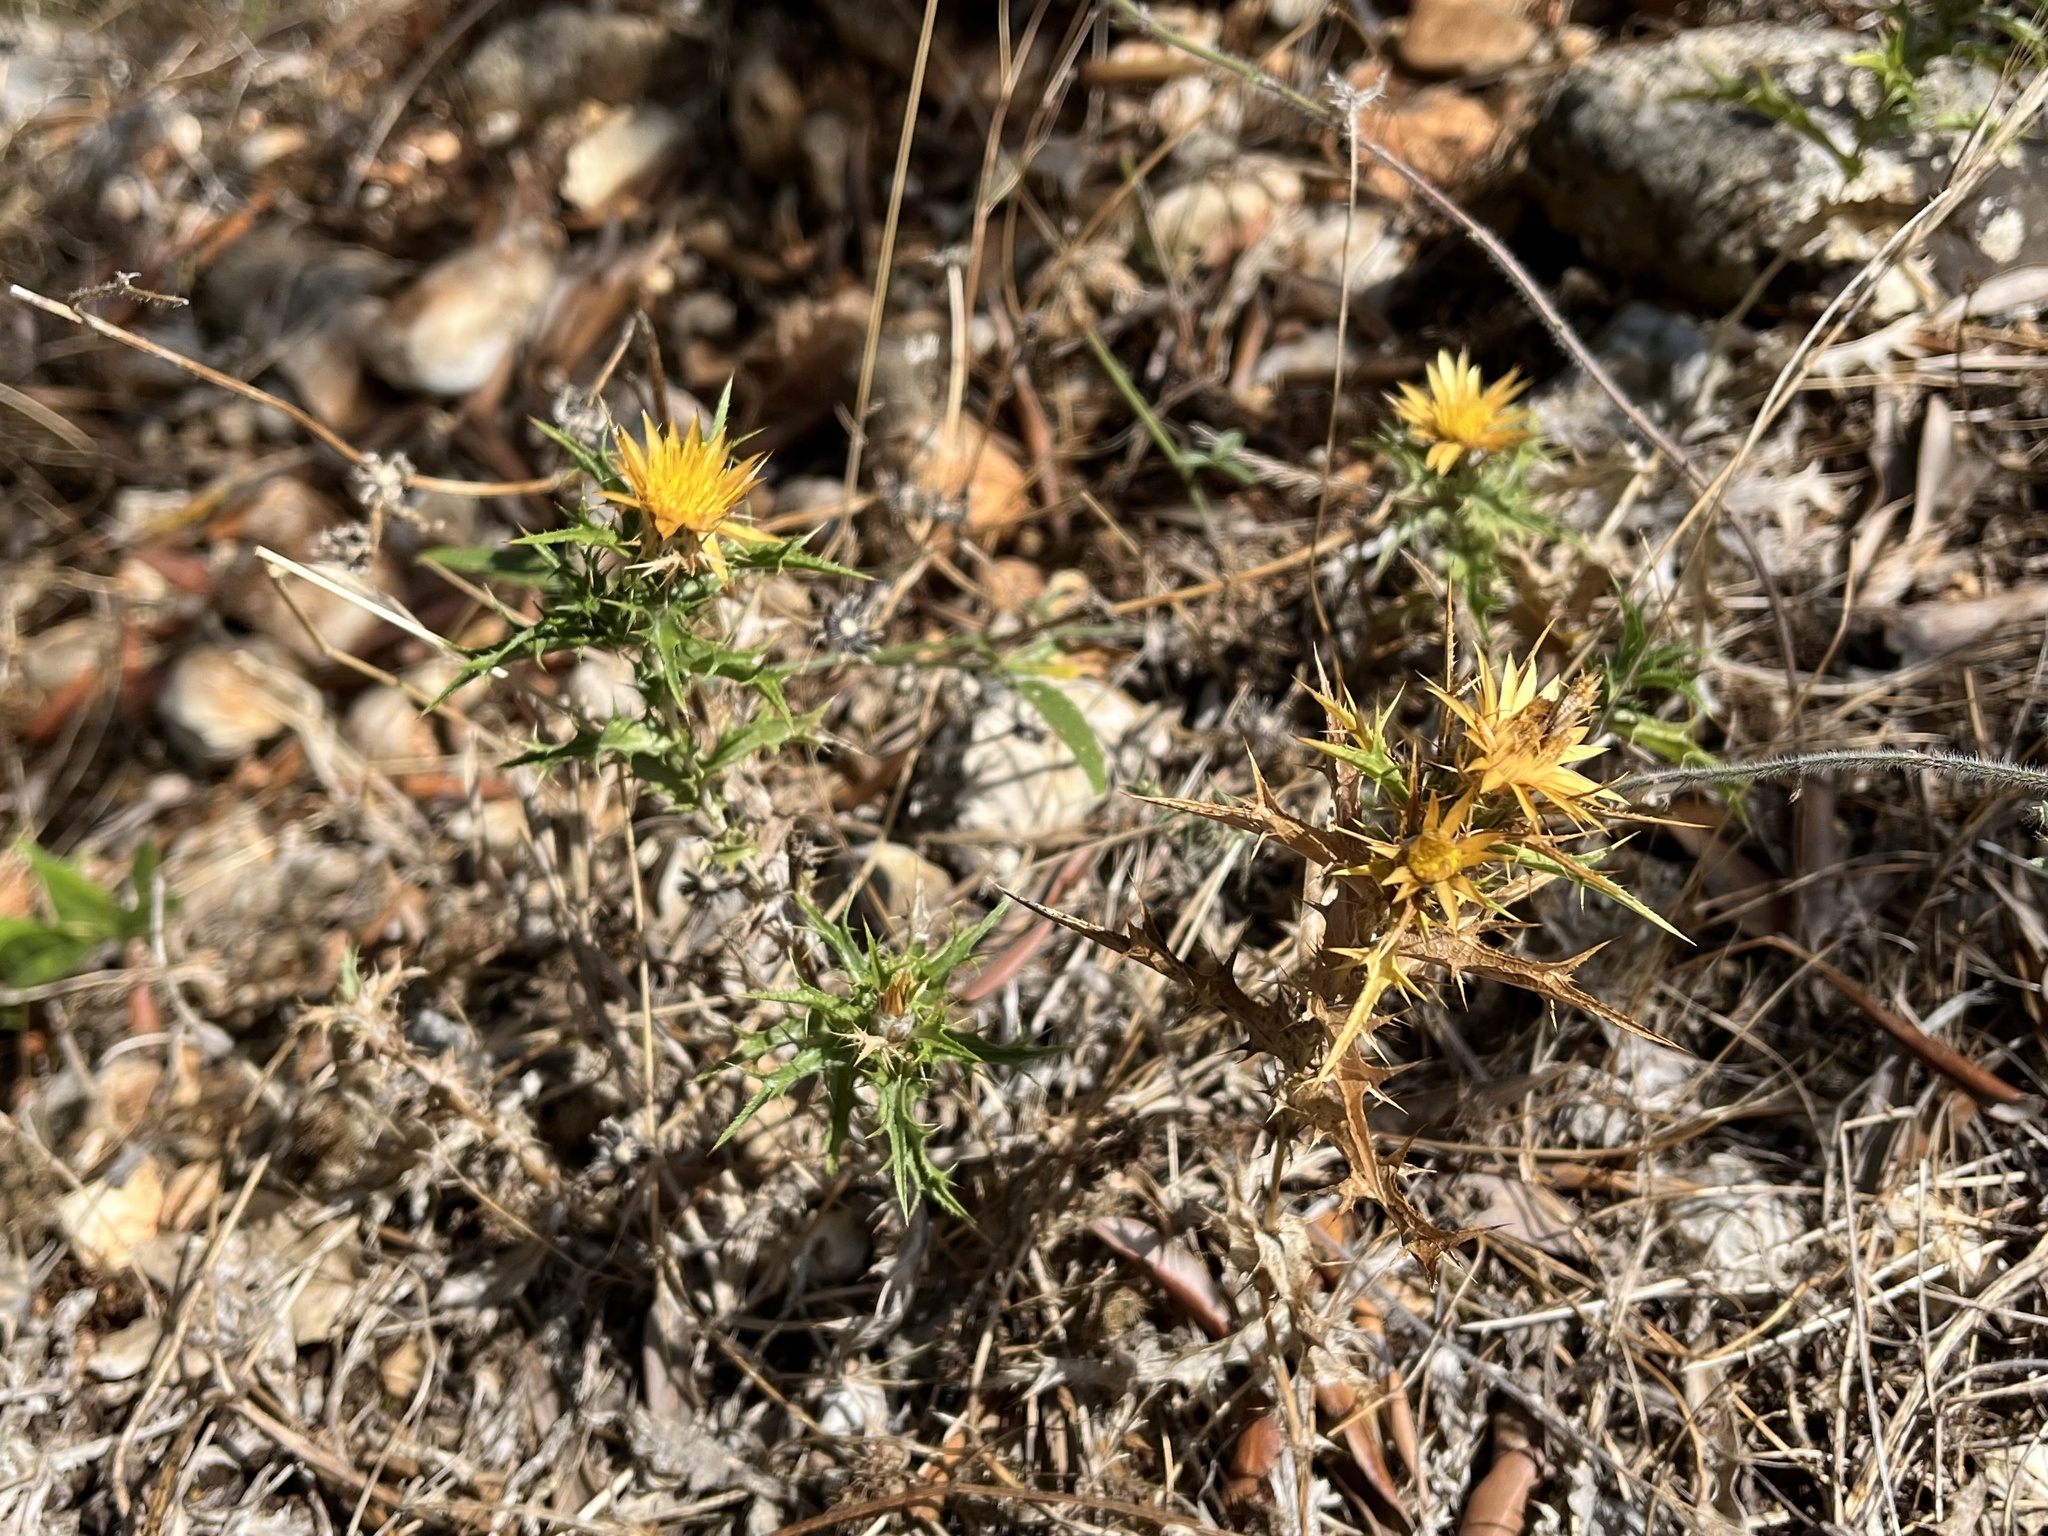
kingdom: Plantae
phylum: Tracheophyta
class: Magnoliopsida
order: Asterales
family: Asteraceae
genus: Carlina
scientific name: Carlina graeca
